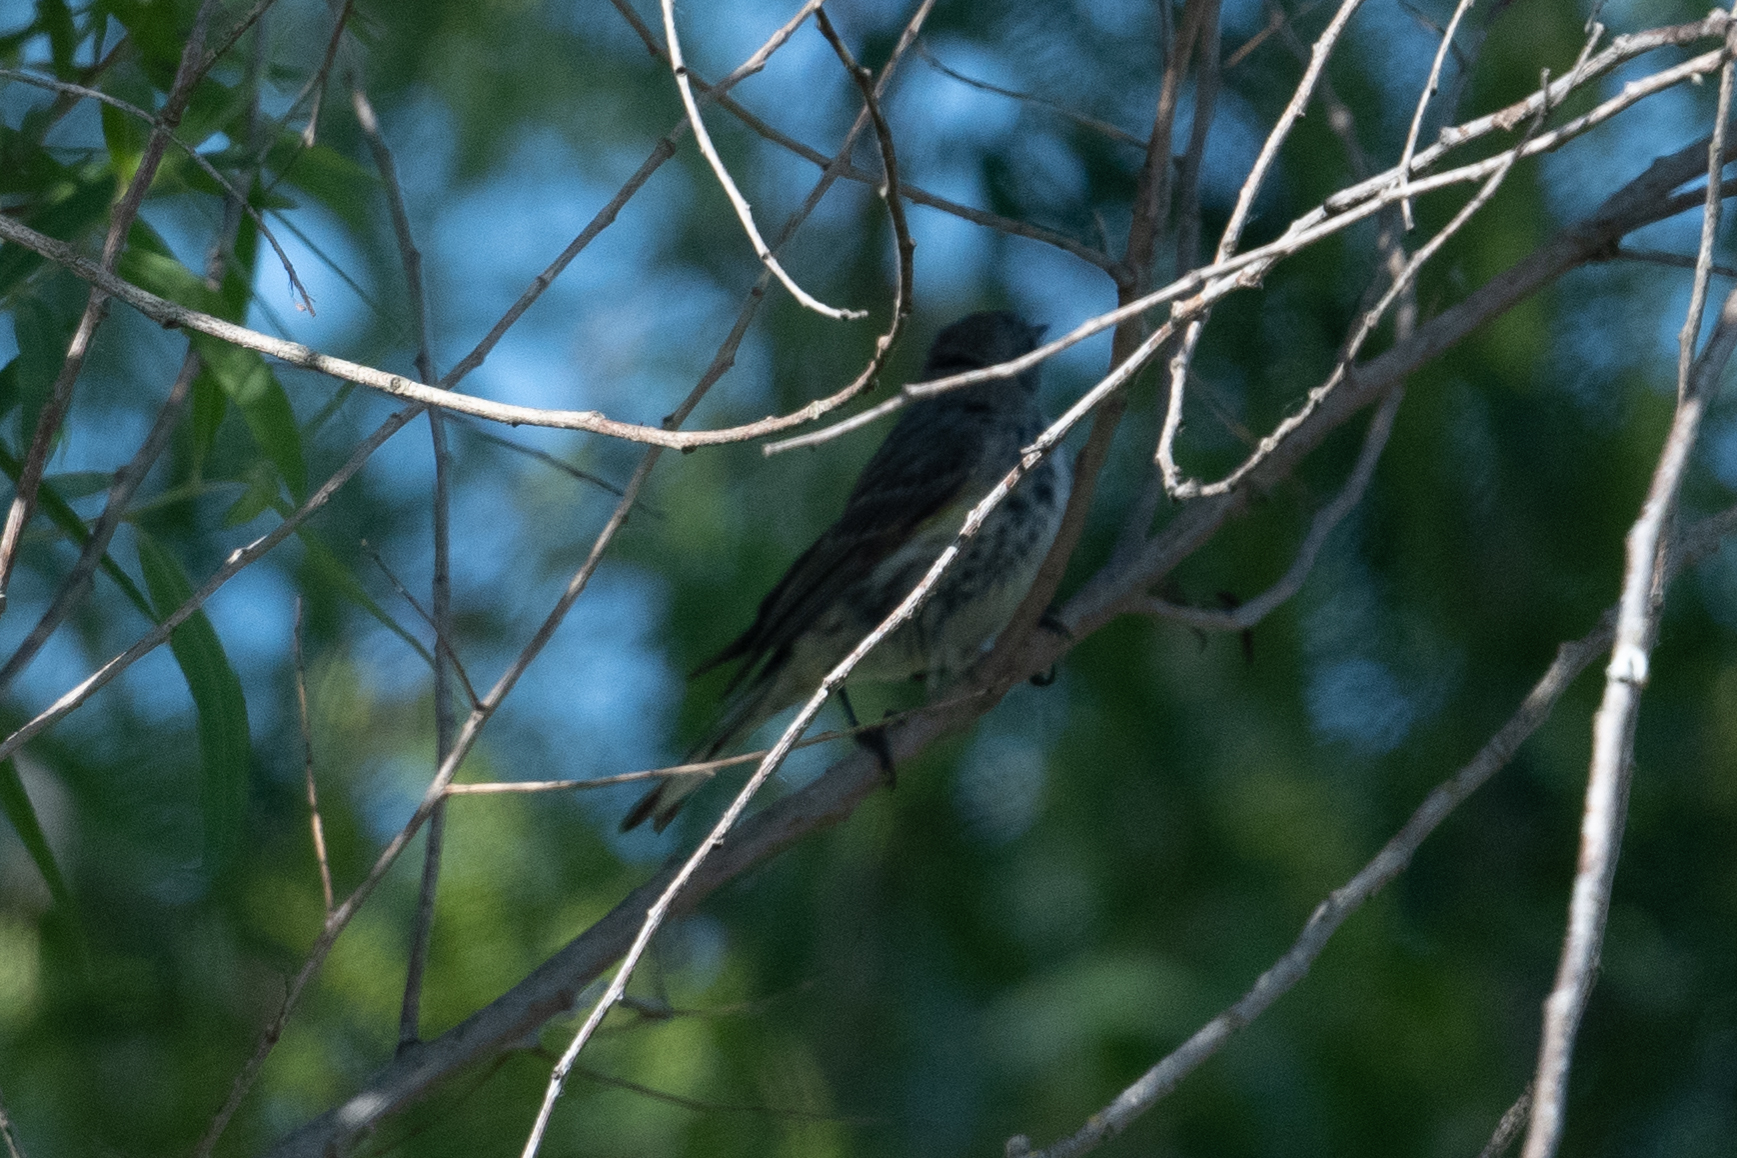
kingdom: Animalia
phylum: Chordata
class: Aves
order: Passeriformes
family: Parulidae
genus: Setophaga
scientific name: Setophaga coronata
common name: Myrtle warbler
